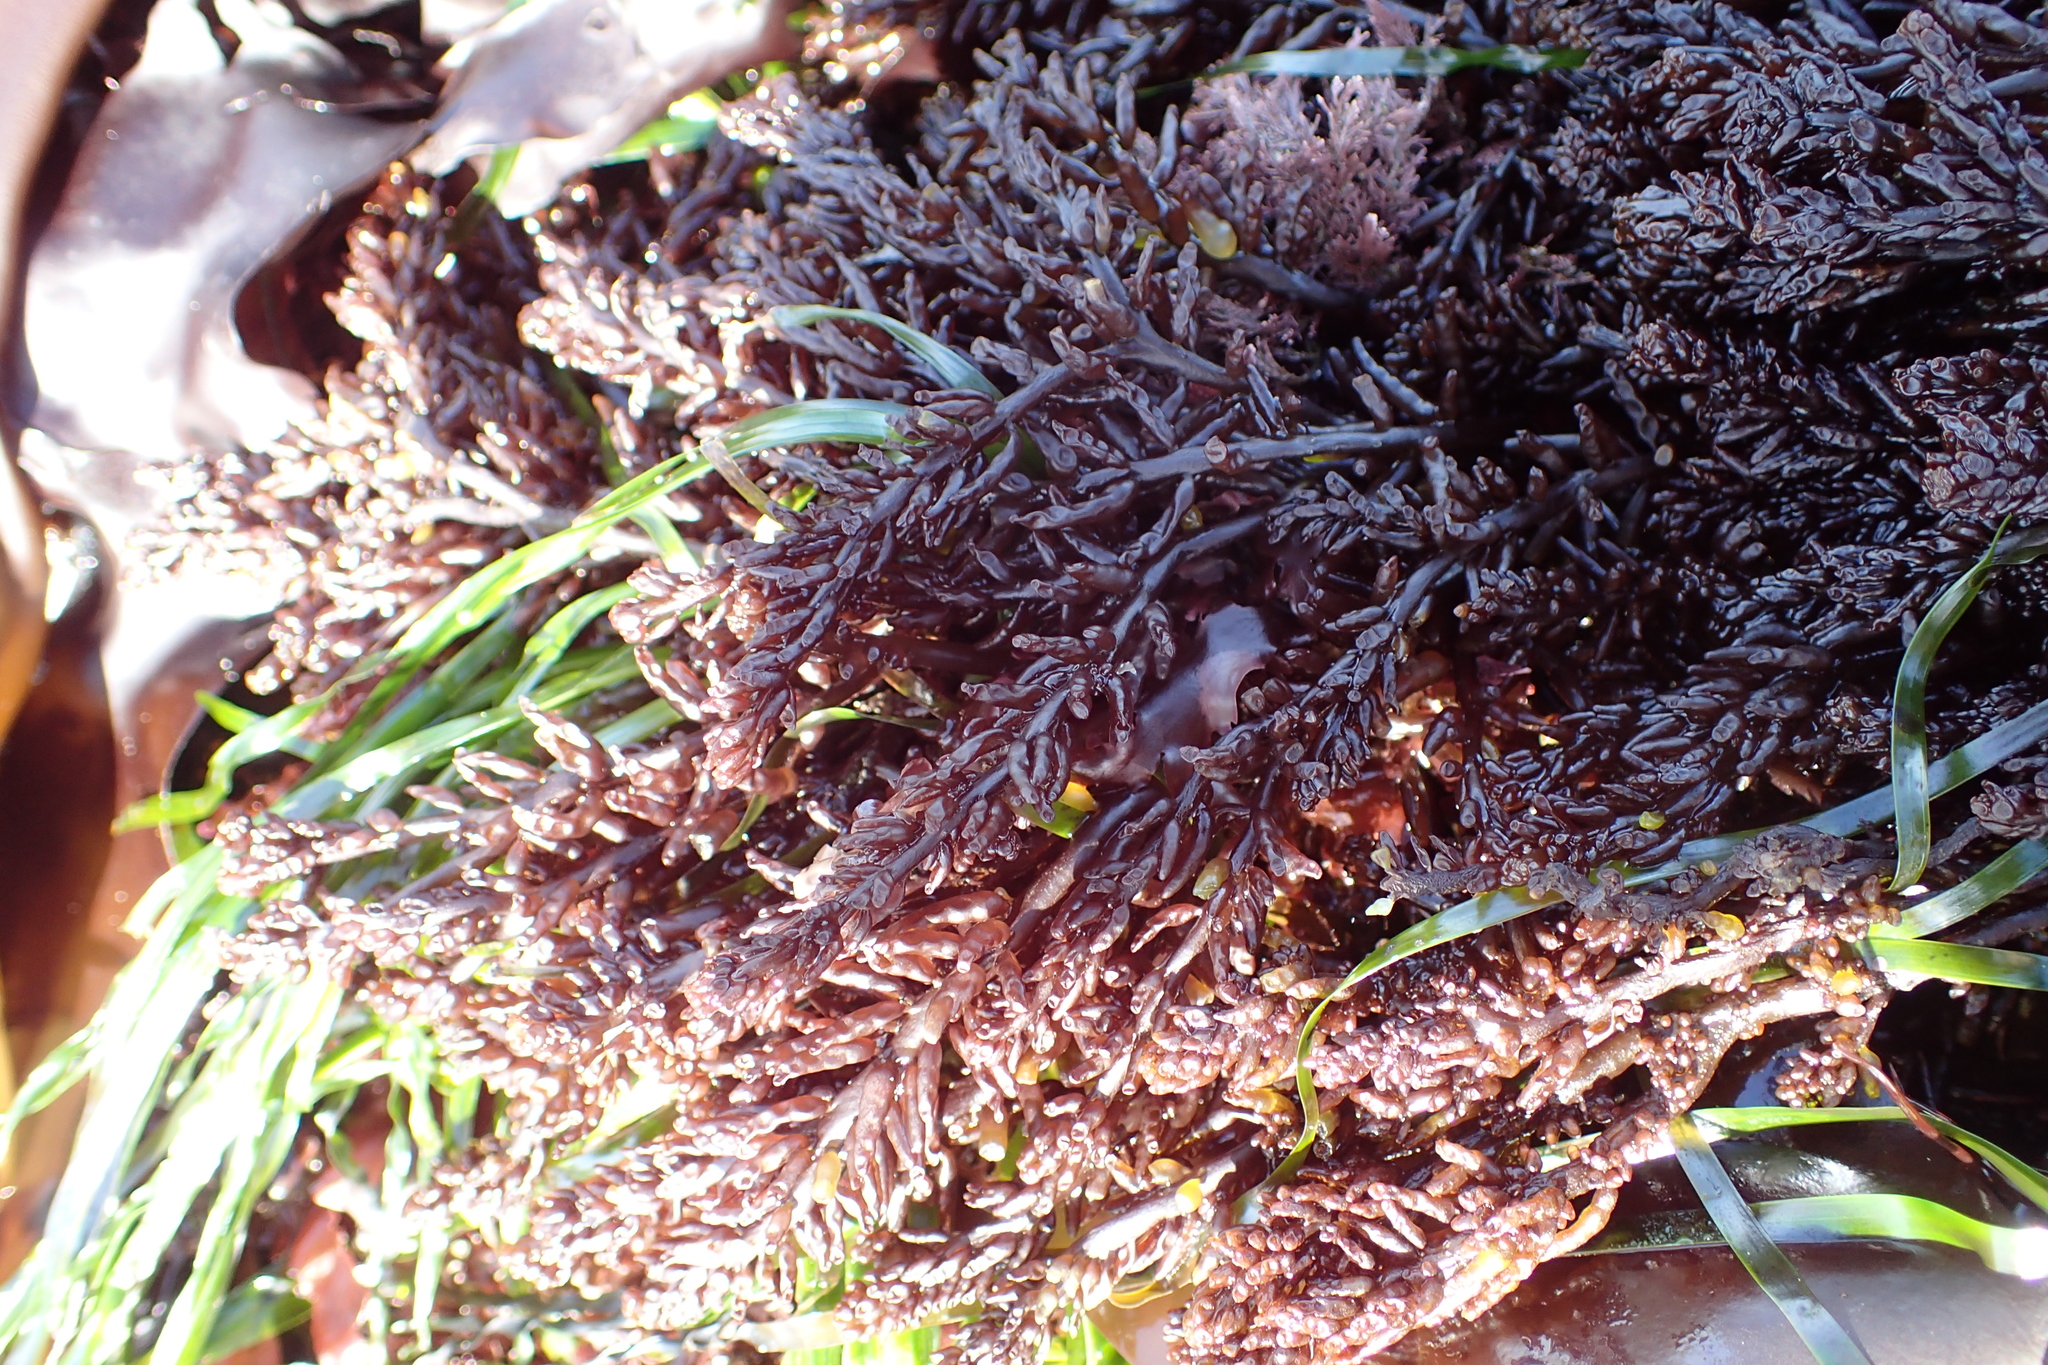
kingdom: Plantae
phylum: Rhodophyta
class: Florideophyceae
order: Rhodymeniales
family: Champiaceae
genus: Neogastroclonium
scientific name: Neogastroclonium subarticulatum
